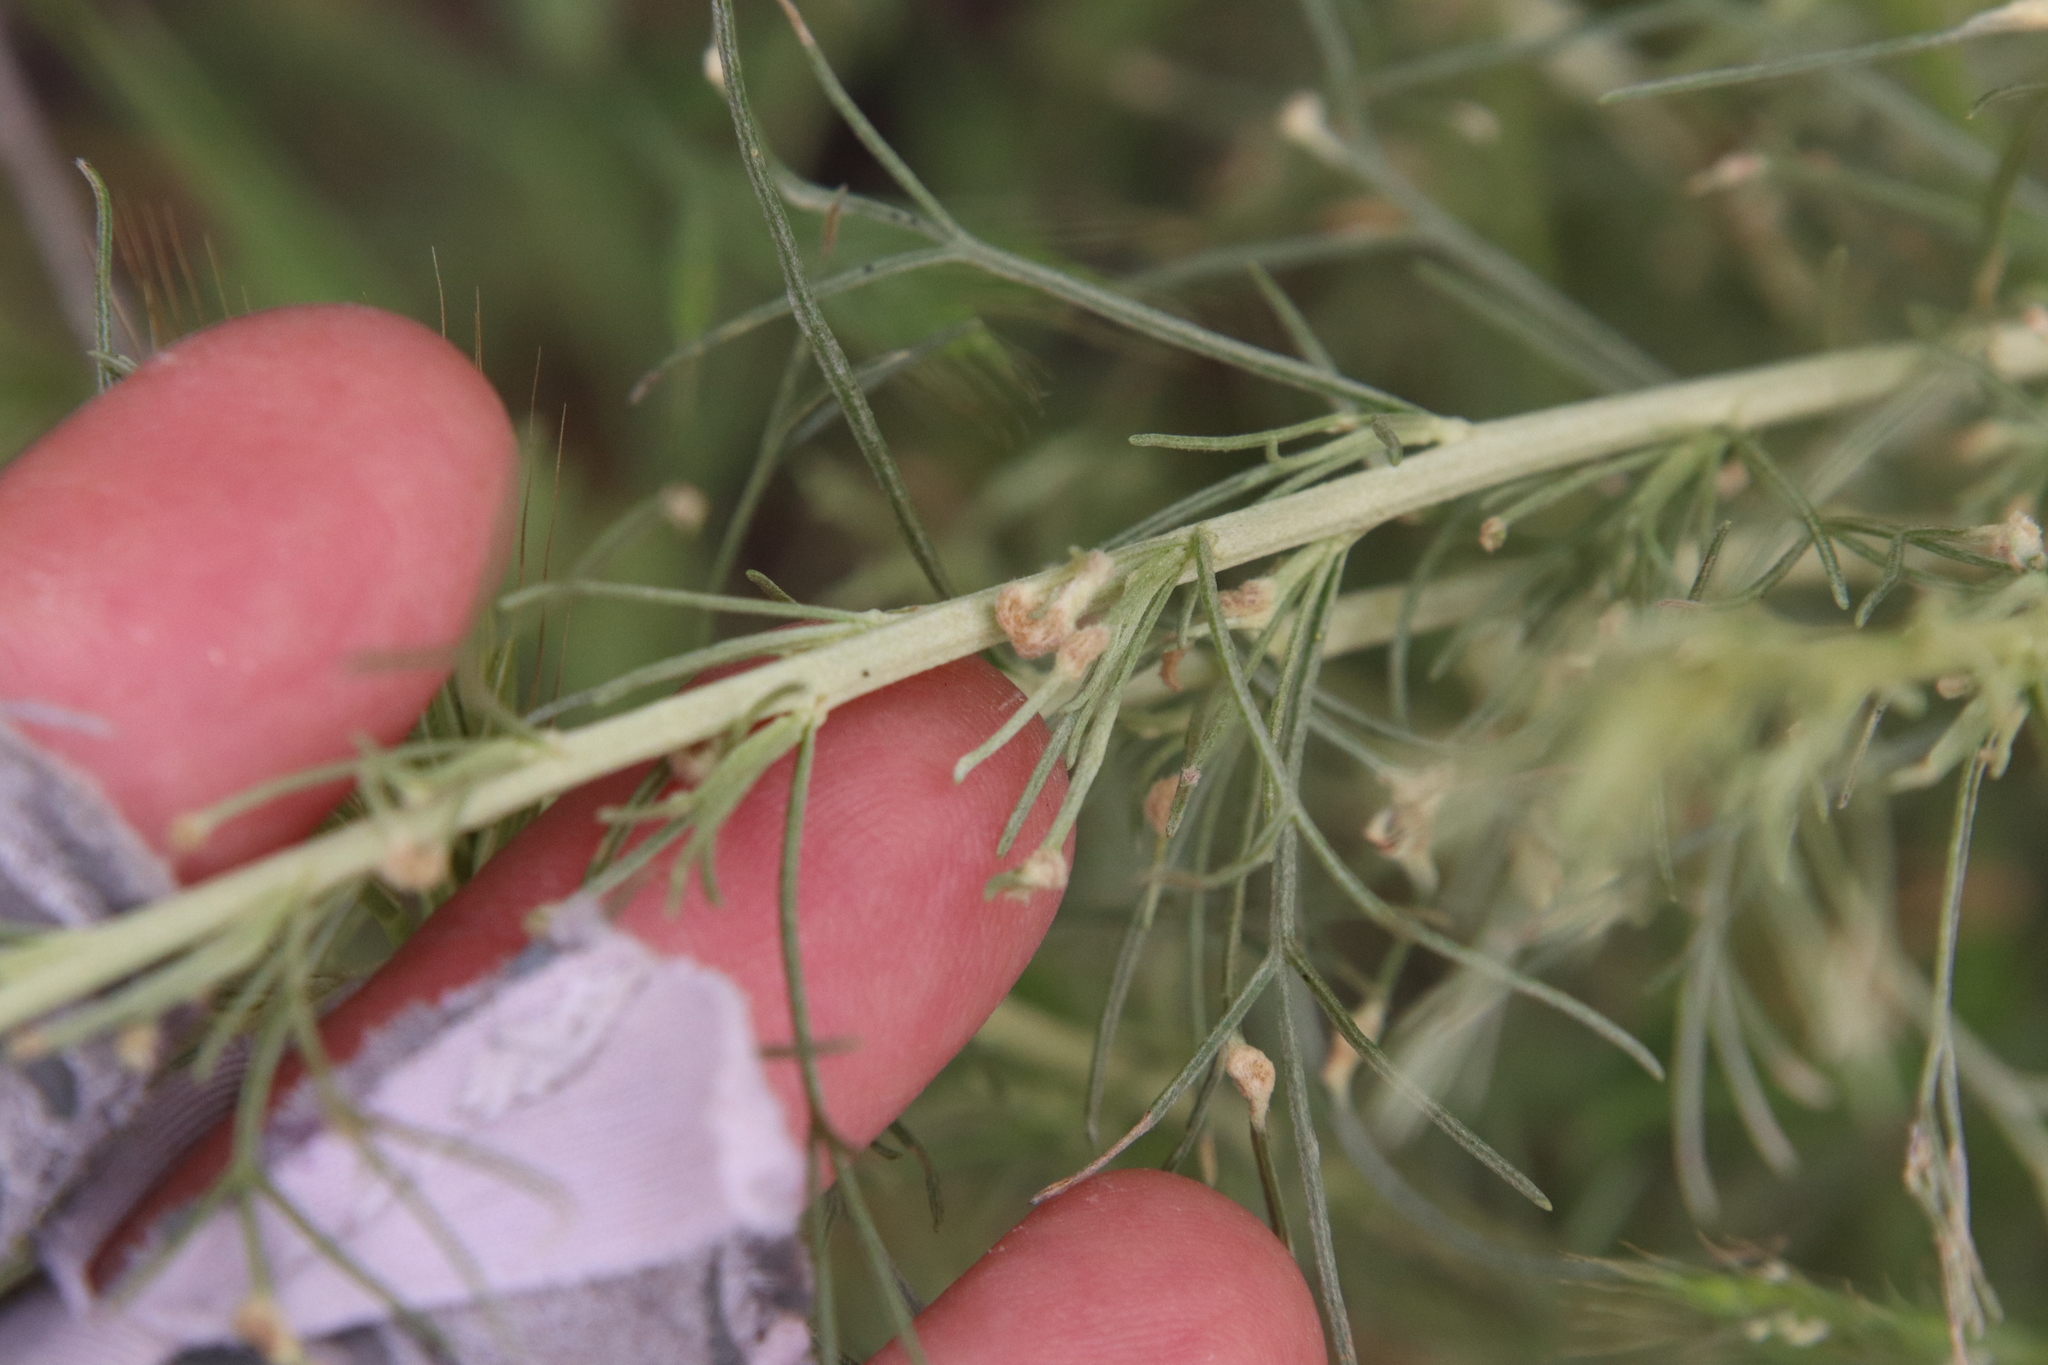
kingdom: Animalia
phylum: Arthropoda
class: Arachnida
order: Trombidiformes
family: Eriophyidae
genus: Aceria
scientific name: Aceria
